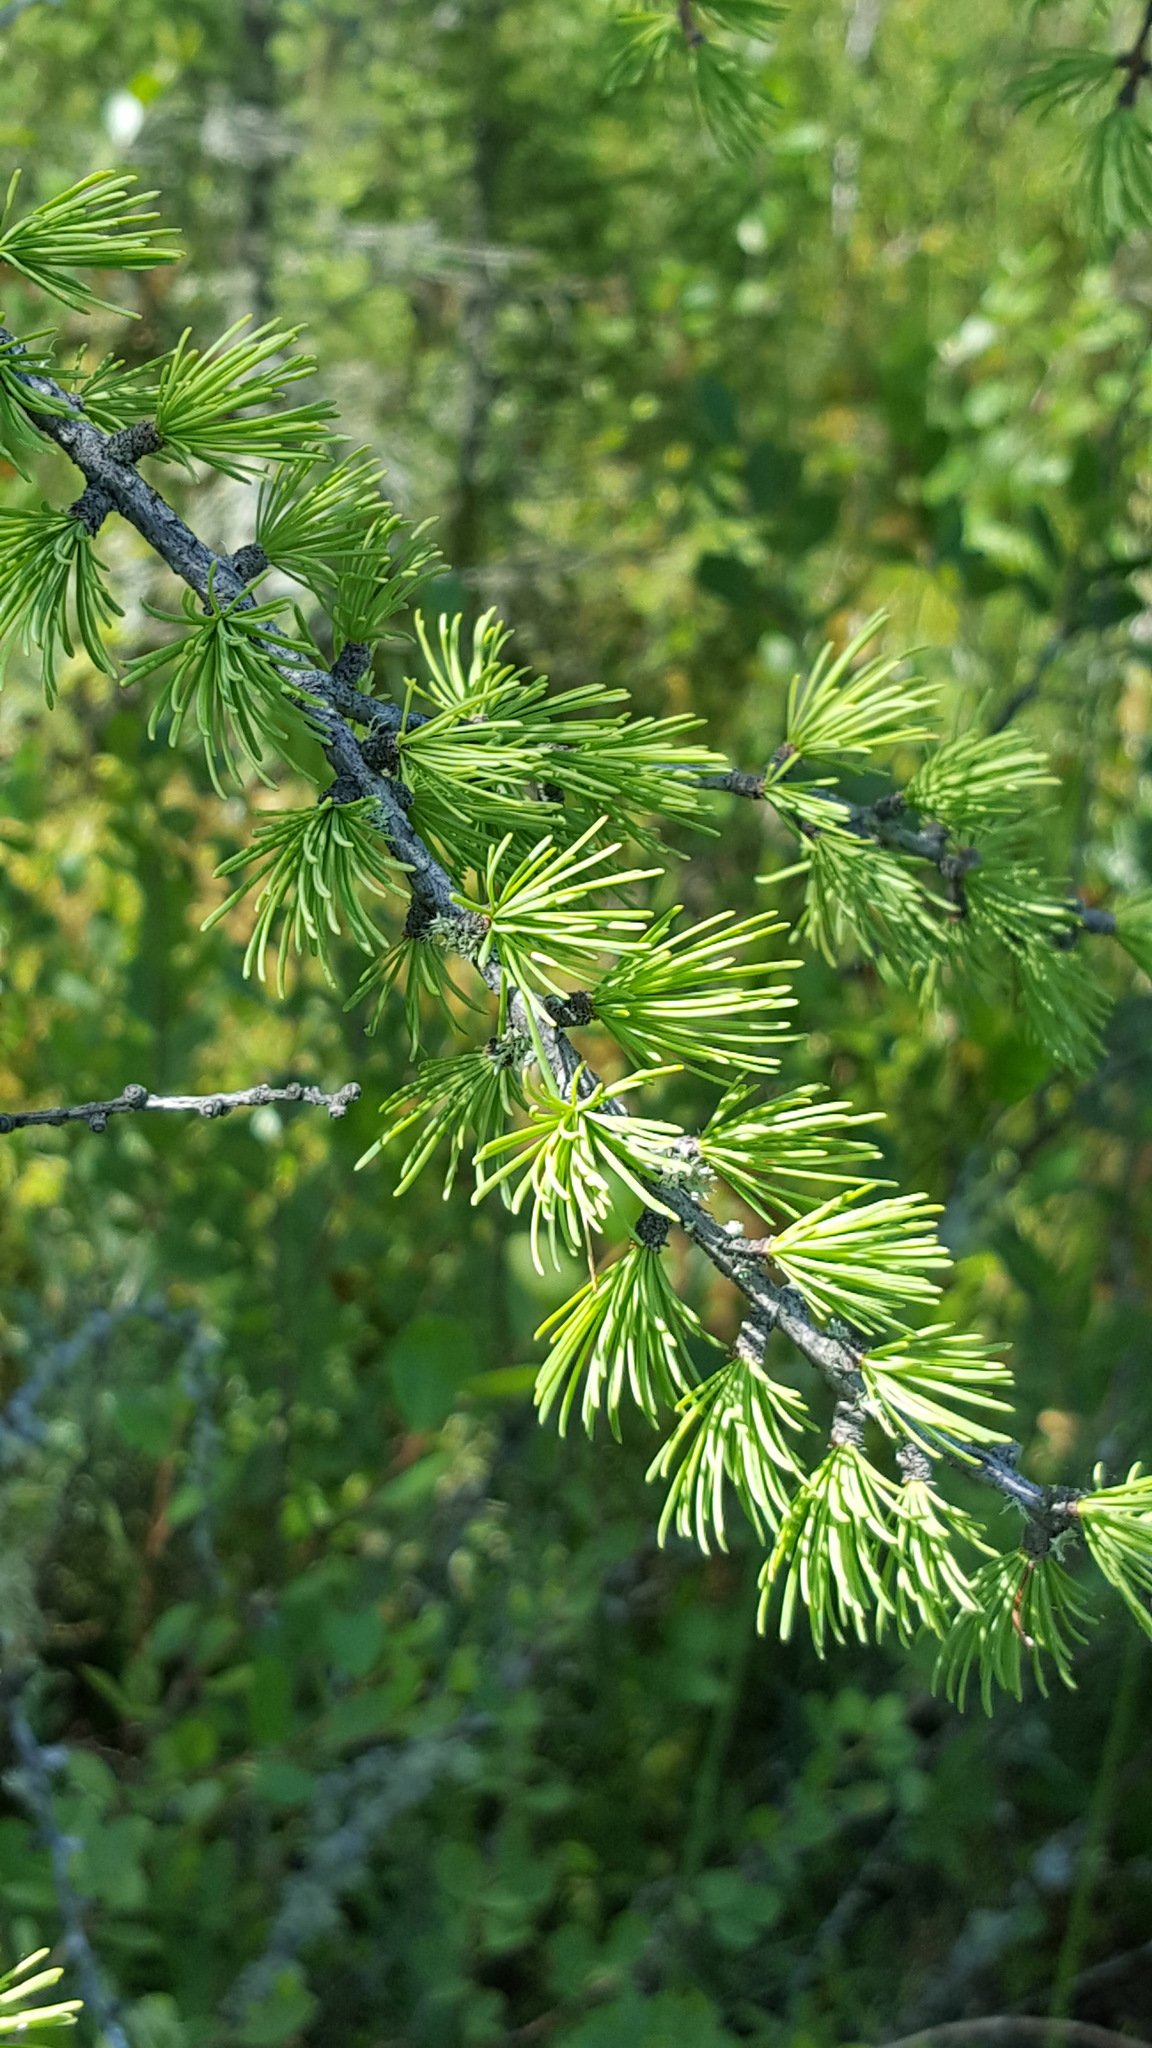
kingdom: Plantae
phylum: Tracheophyta
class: Pinopsida
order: Pinales
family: Pinaceae
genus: Larix
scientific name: Larix laricina
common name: American larch
